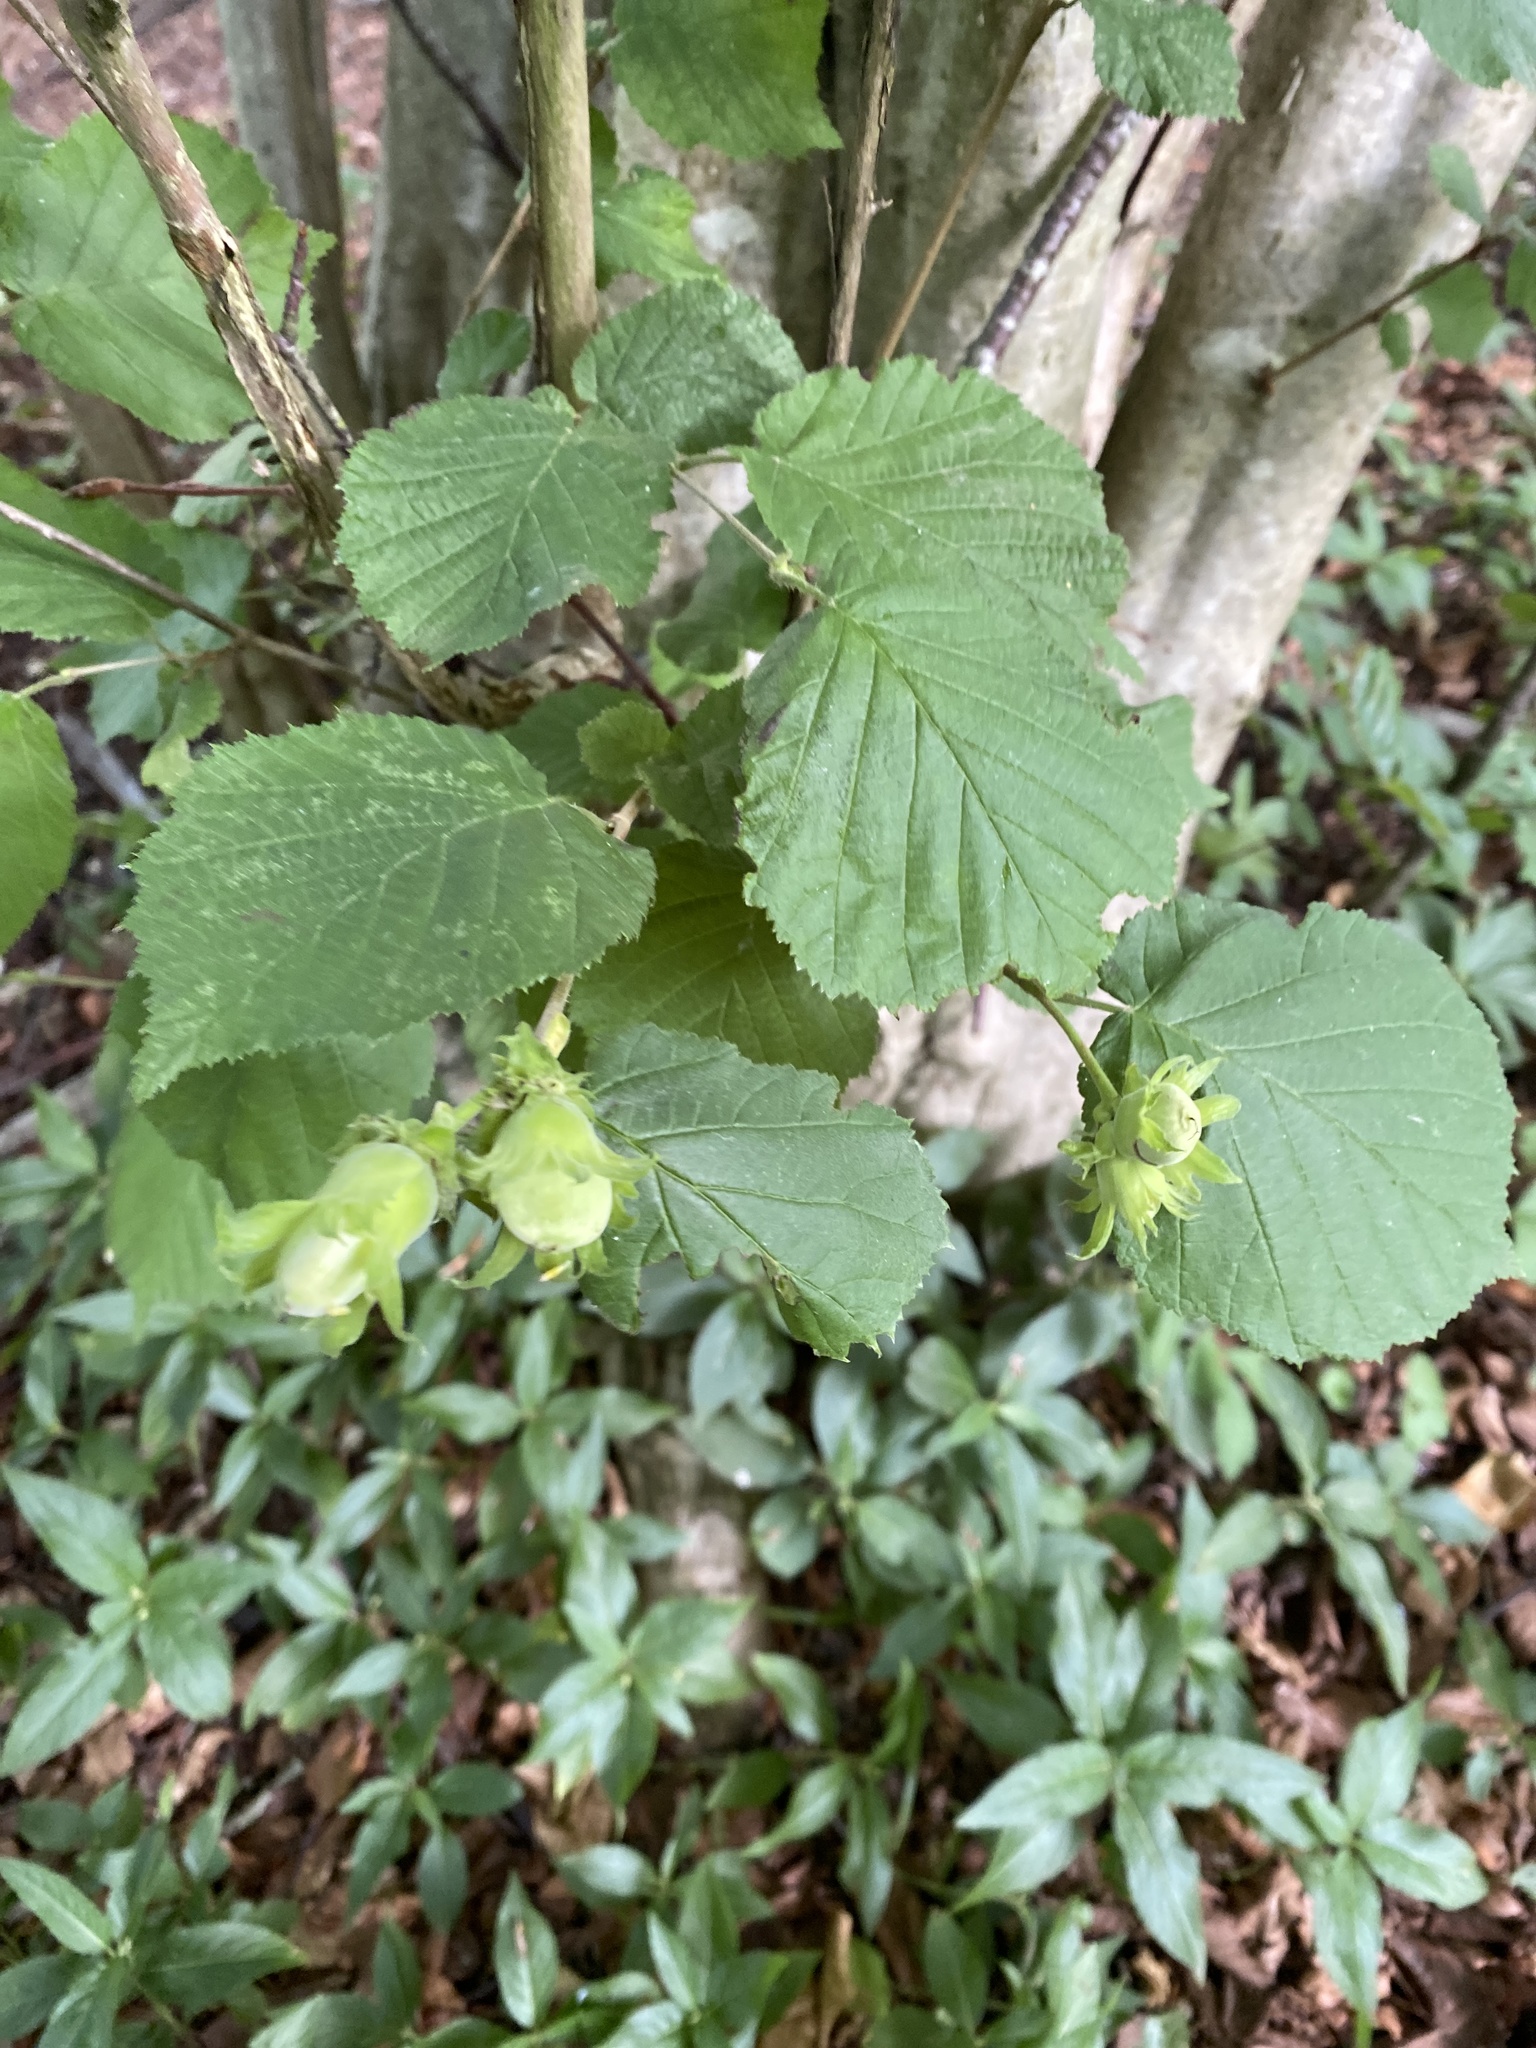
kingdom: Plantae
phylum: Tracheophyta
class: Magnoliopsida
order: Fagales
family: Betulaceae
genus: Corylus
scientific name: Corylus avellana
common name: European hazel
